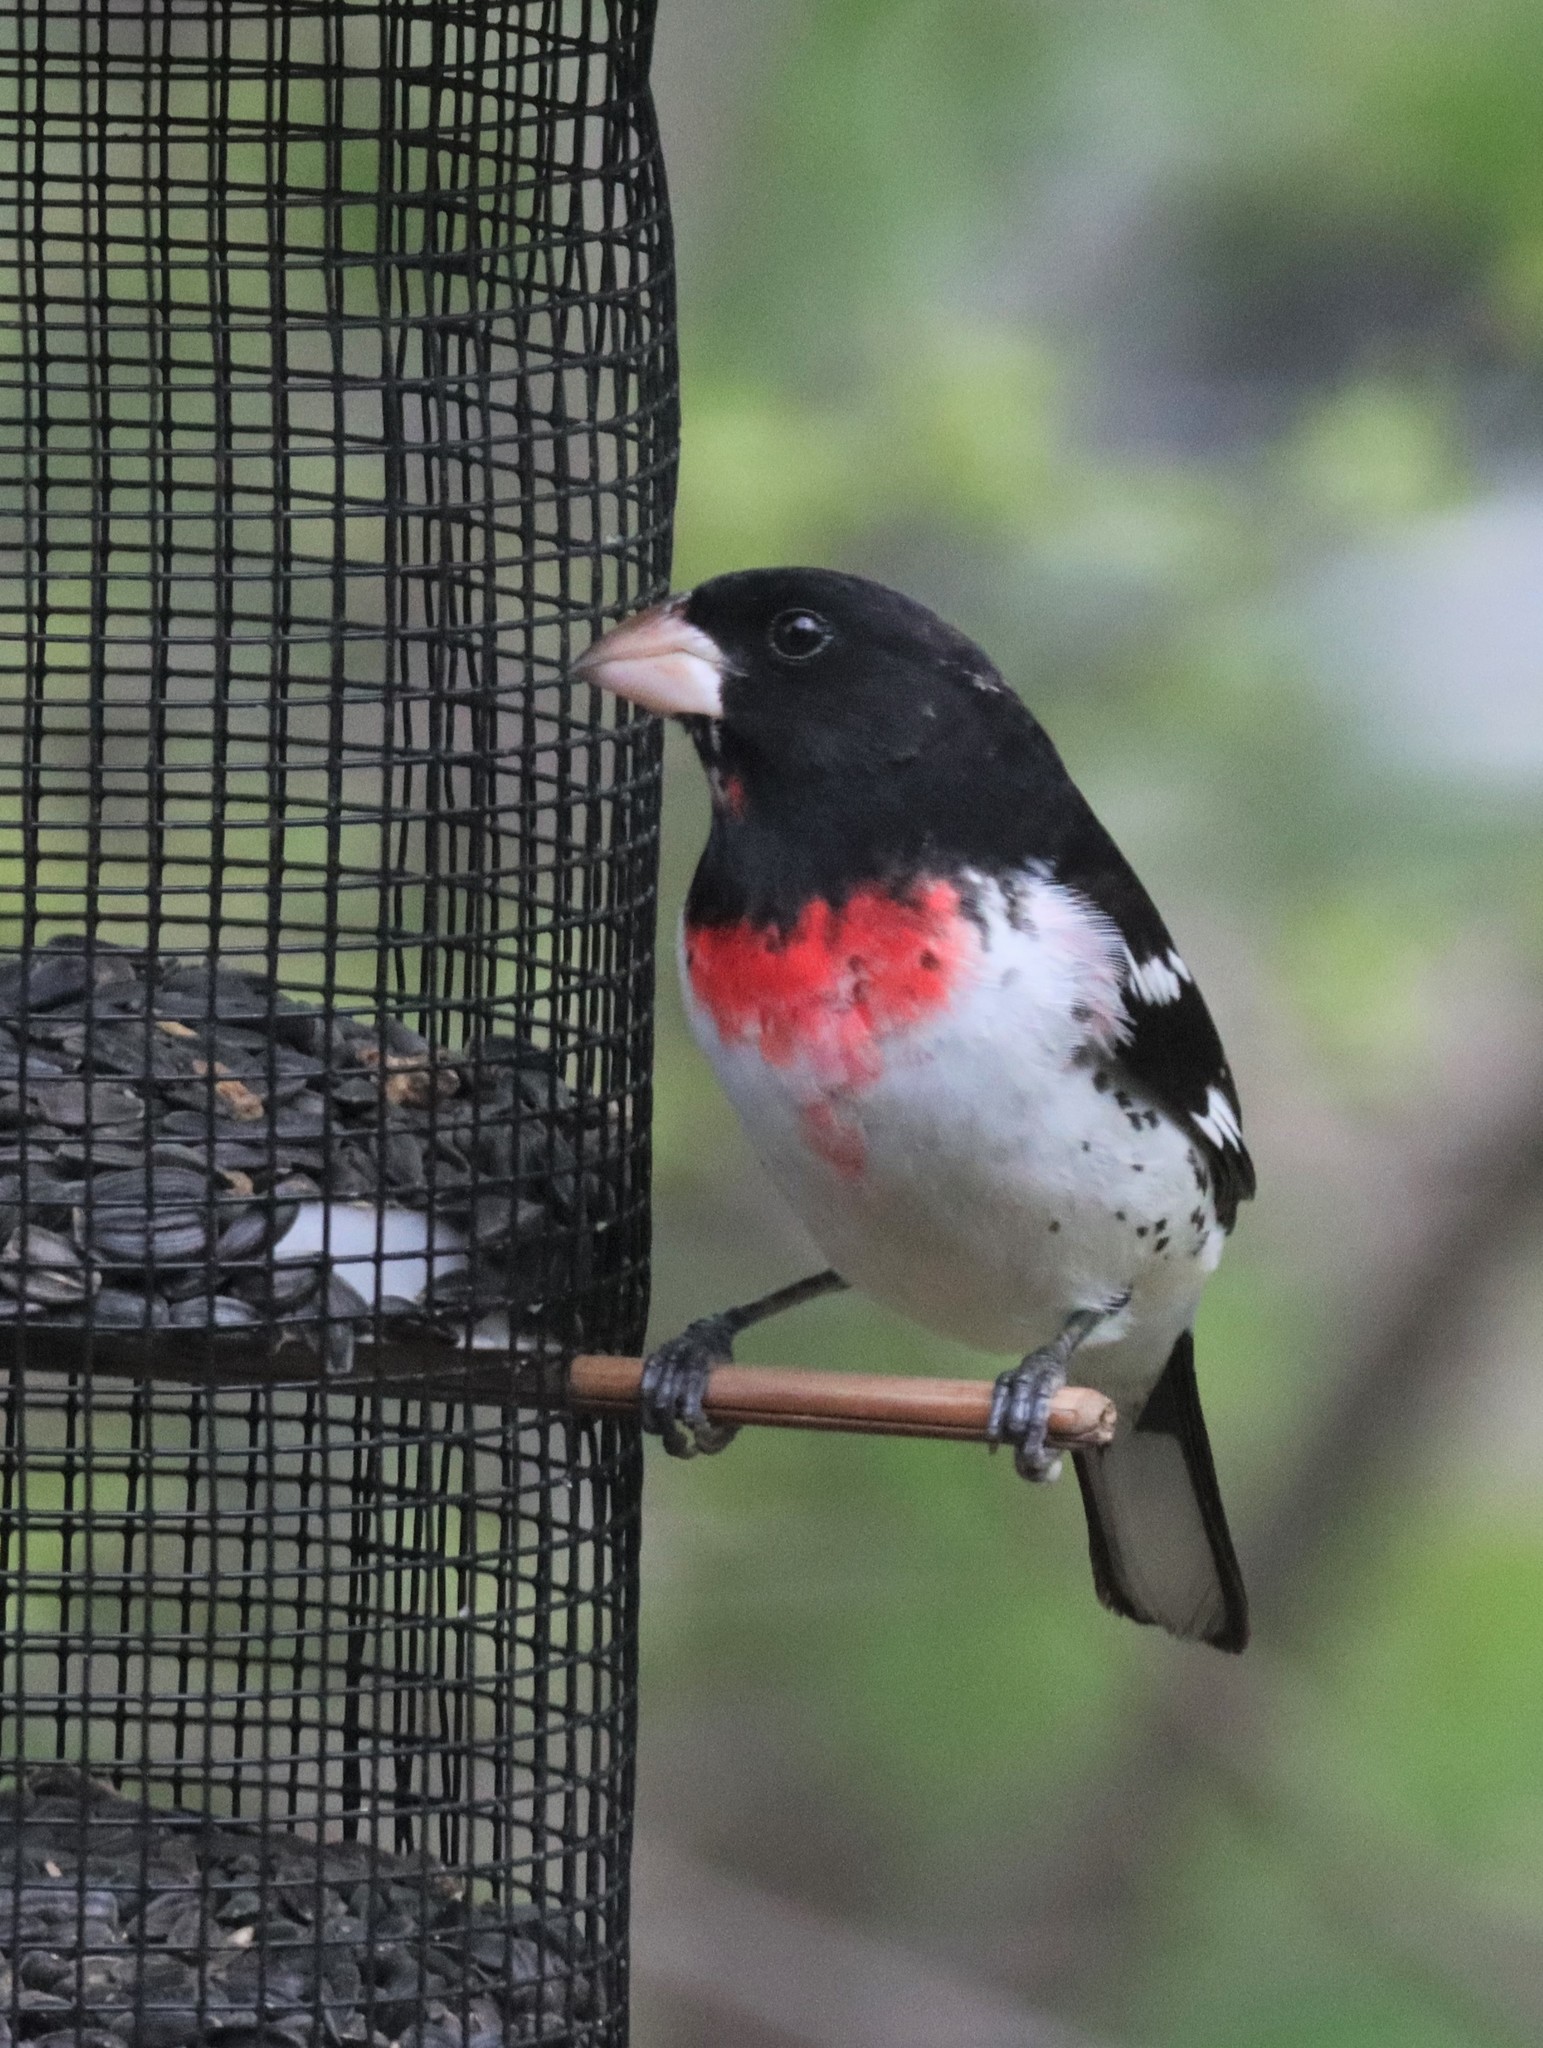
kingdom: Animalia
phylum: Chordata
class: Aves
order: Passeriformes
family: Cardinalidae
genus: Pheucticus
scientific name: Pheucticus ludovicianus
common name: Rose-breasted grosbeak
